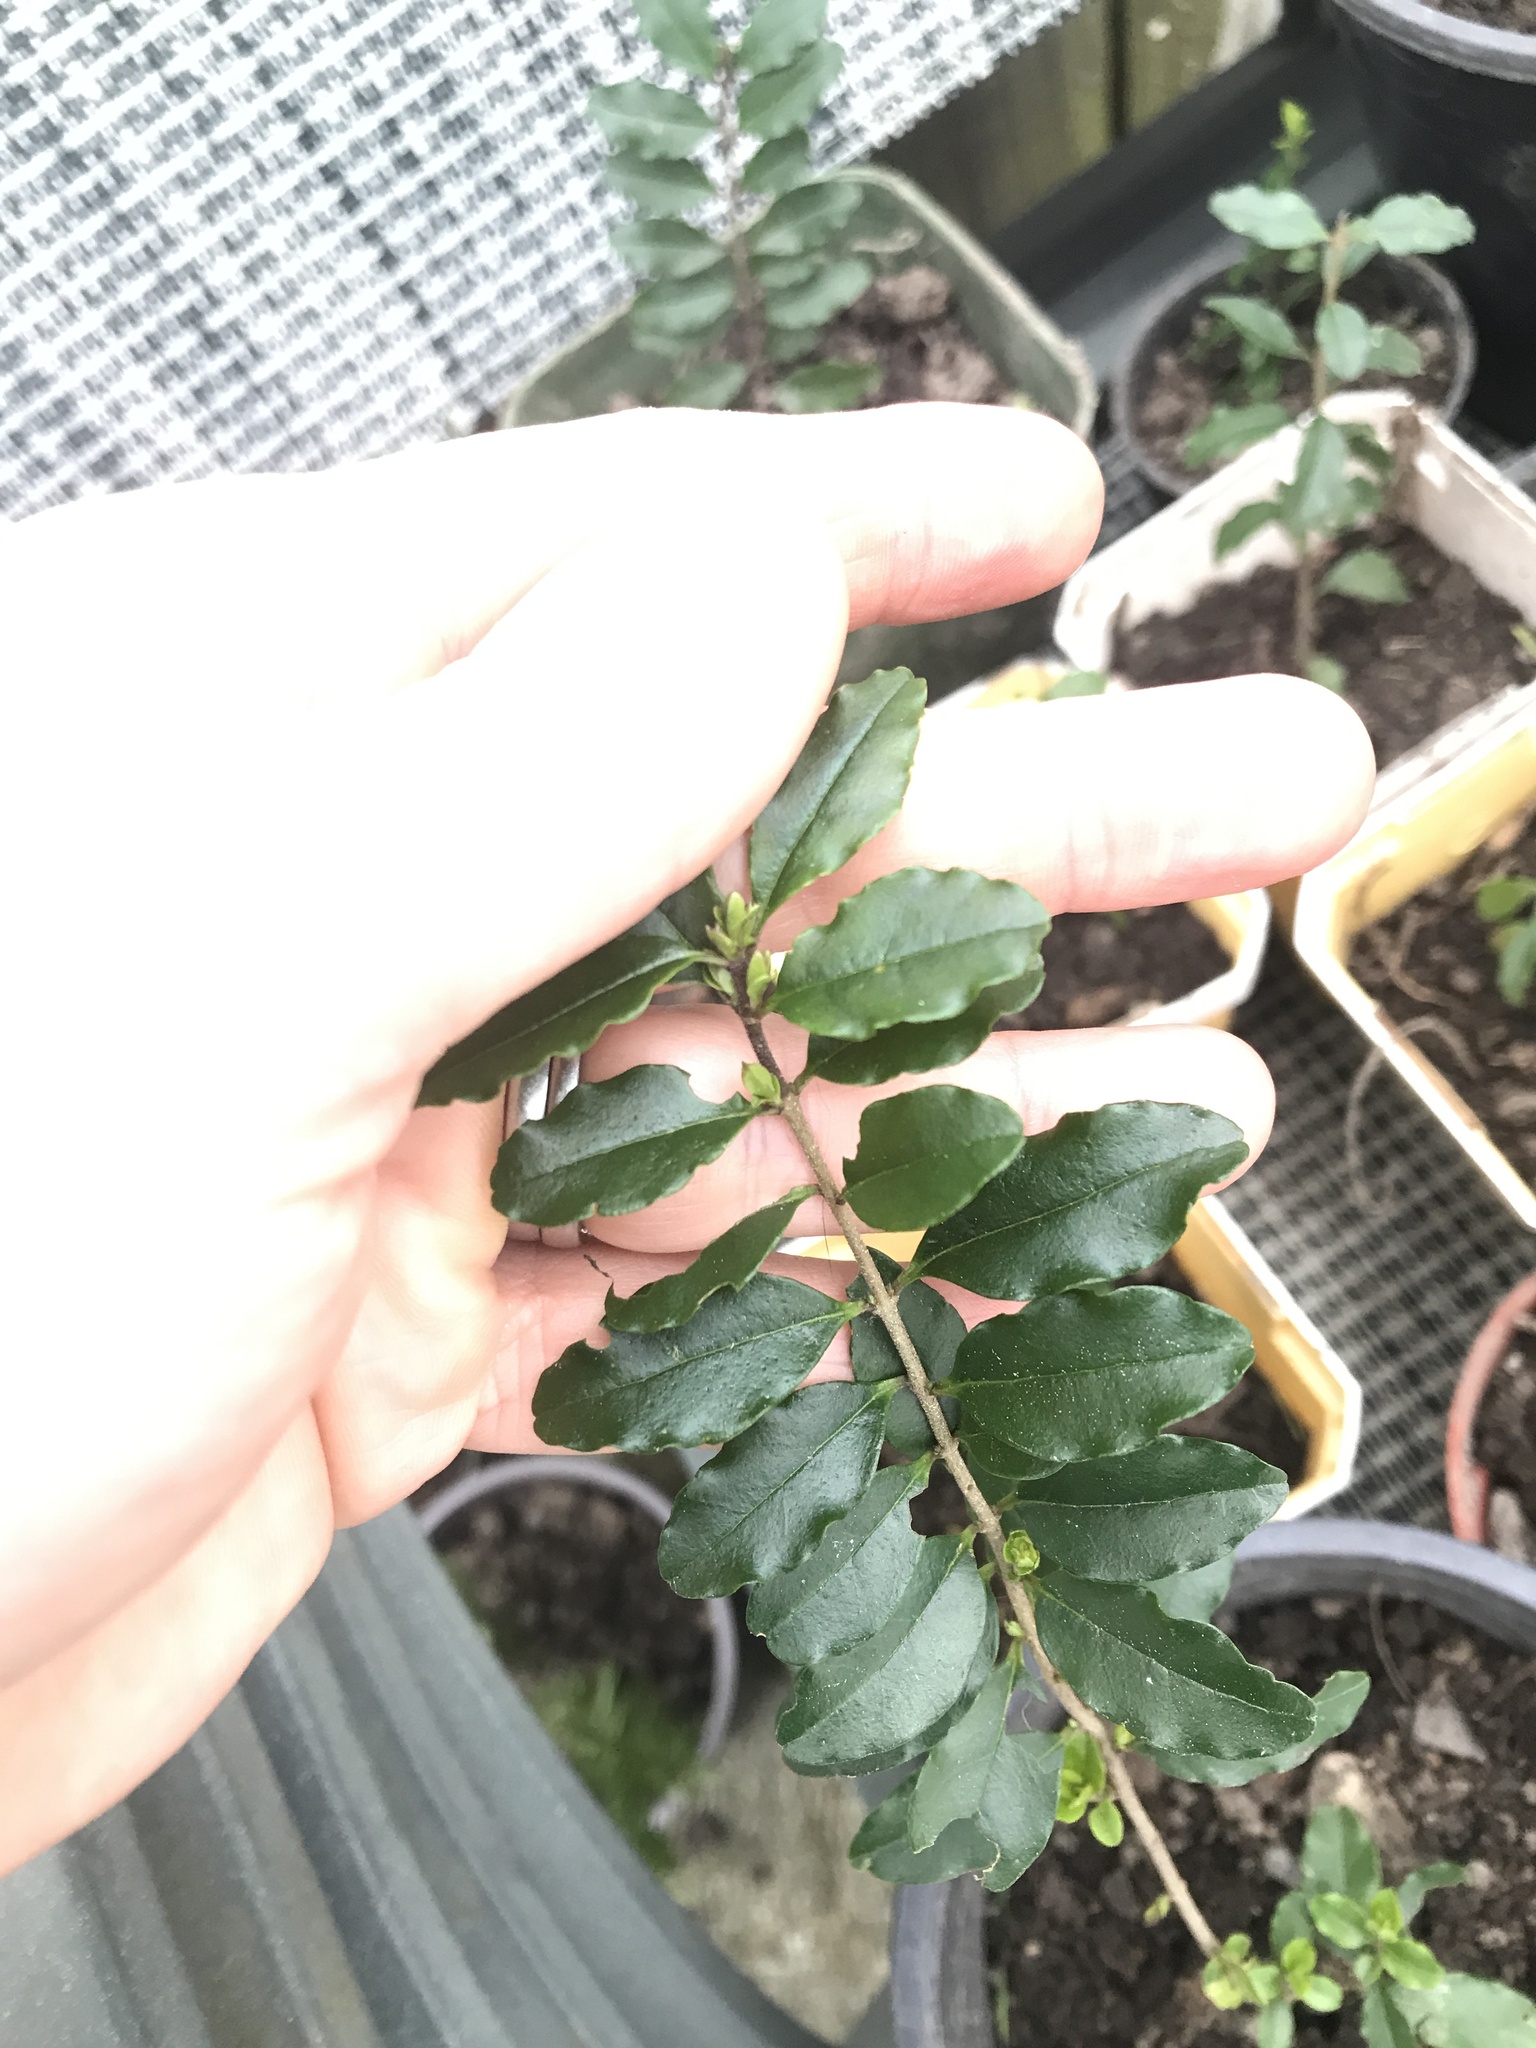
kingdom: Plantae
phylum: Tracheophyta
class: Magnoliopsida
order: Lamiales
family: Oleaceae
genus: Ligustrum
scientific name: Ligustrum sinense
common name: Chinese privet
